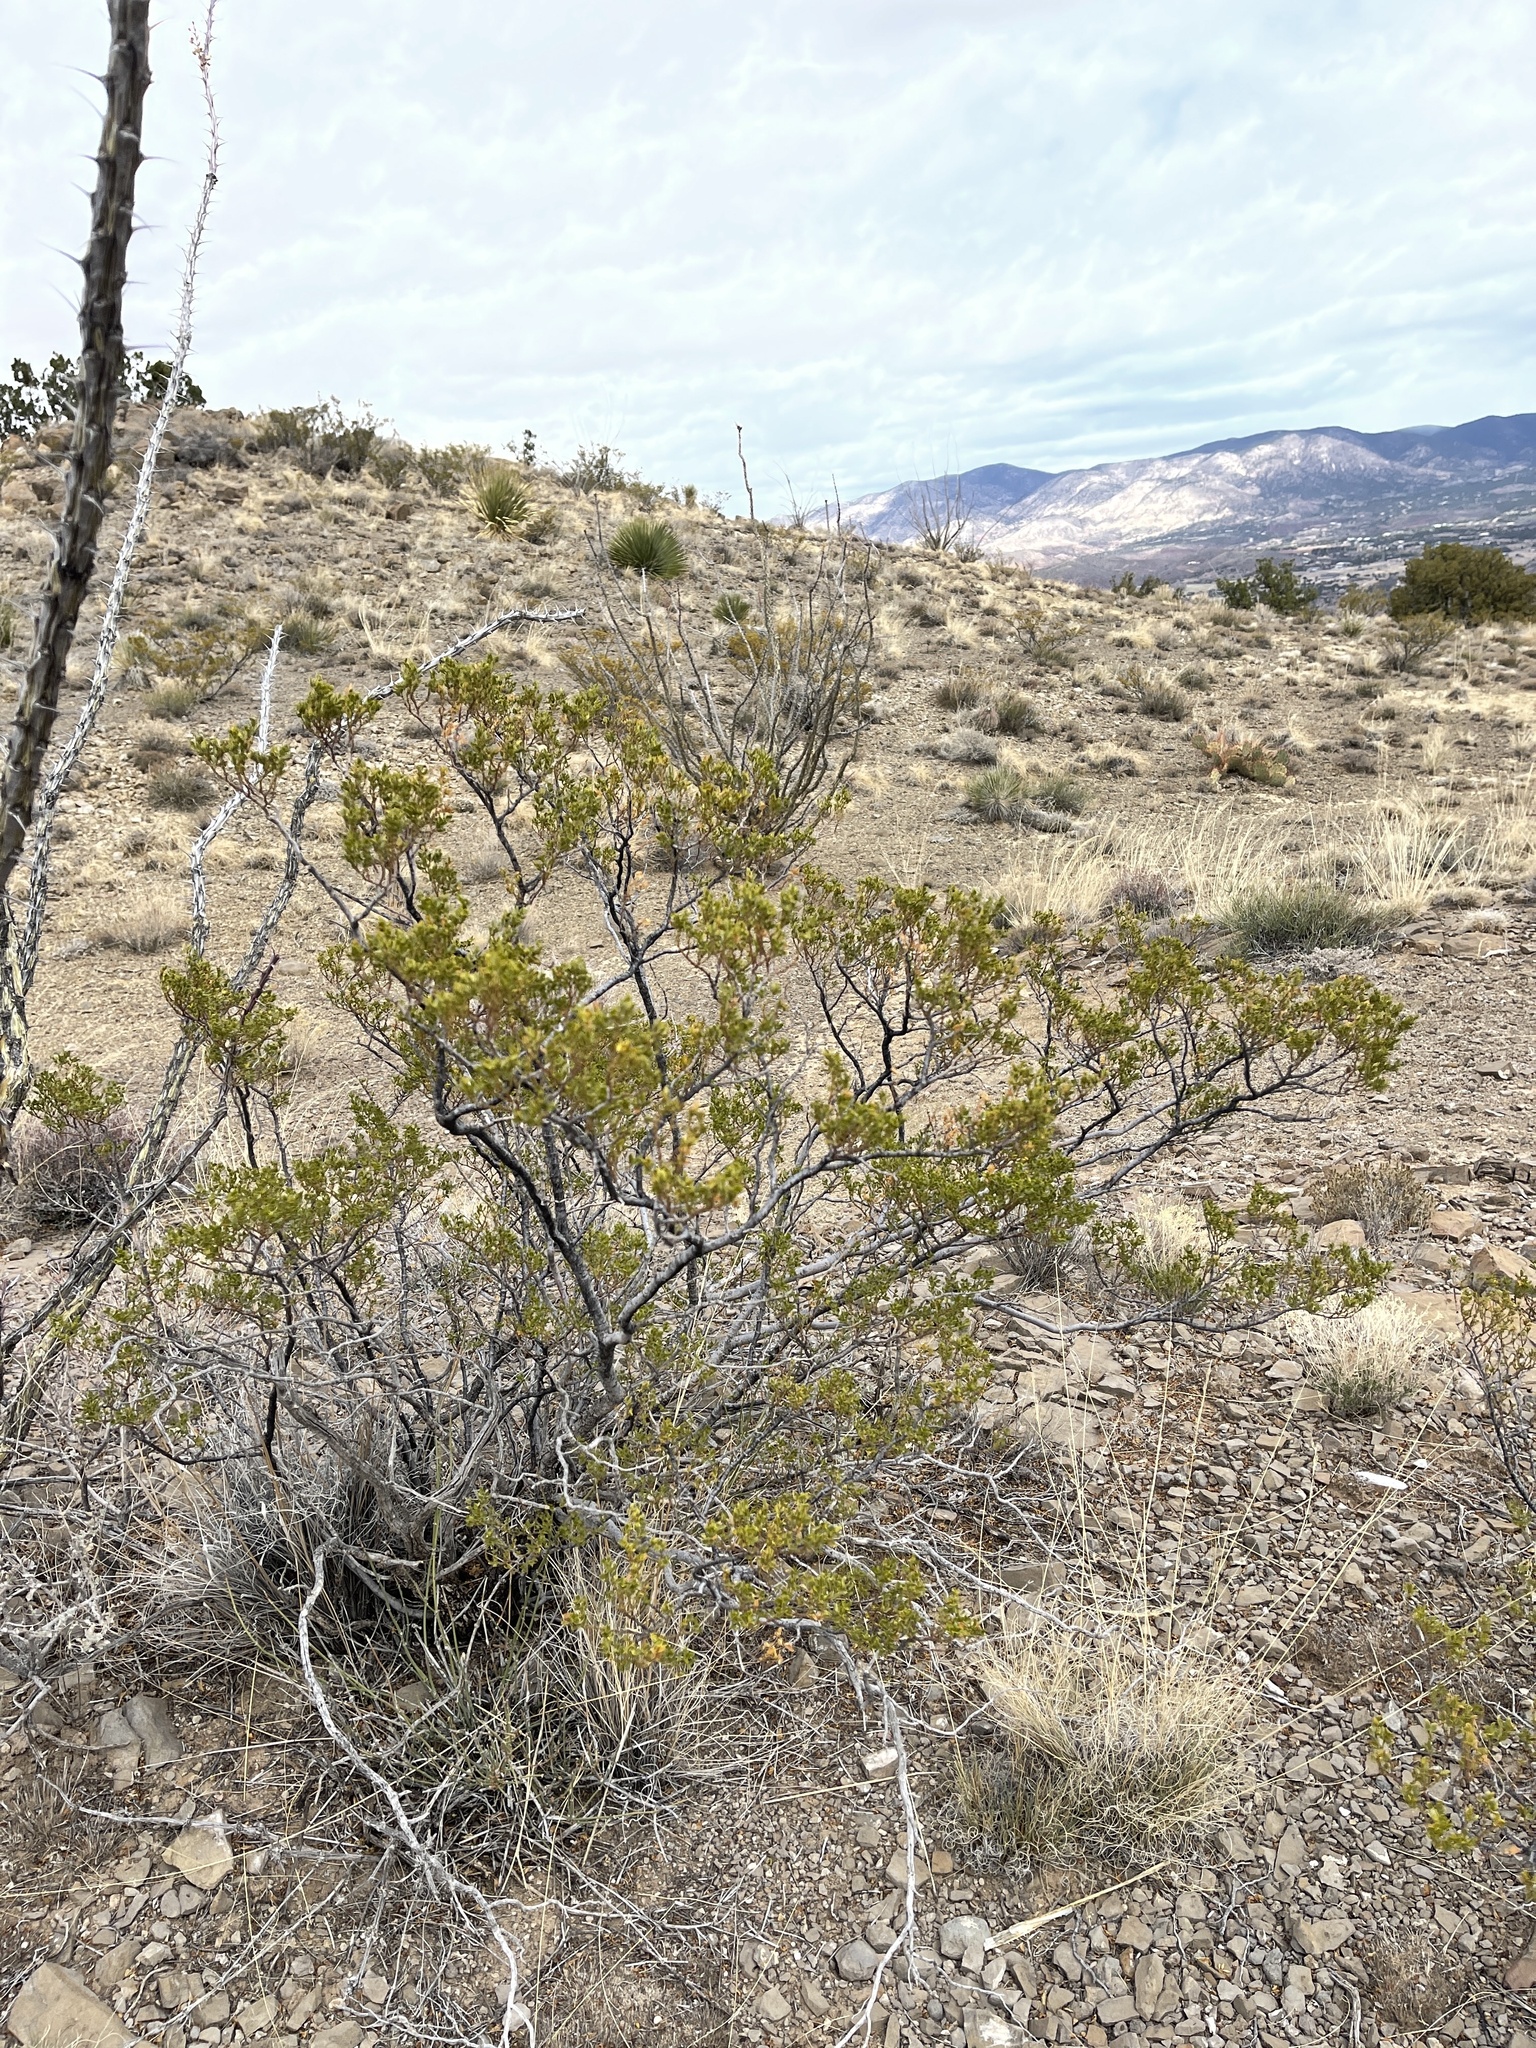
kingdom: Plantae
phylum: Tracheophyta
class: Magnoliopsida
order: Zygophyllales
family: Zygophyllaceae
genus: Larrea
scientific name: Larrea tridentata
